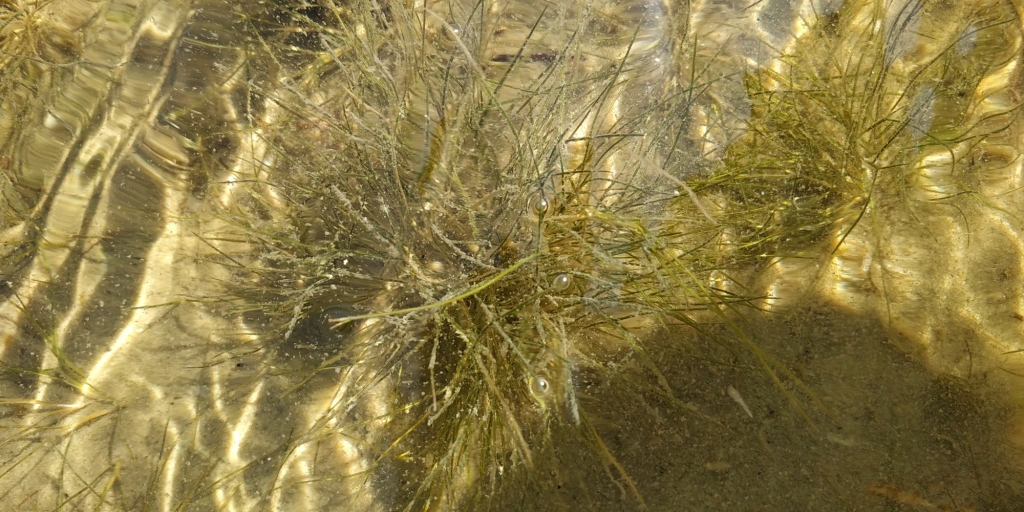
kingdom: Plantae
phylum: Tracheophyta
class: Liliopsida
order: Alismatales
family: Potamogetonaceae
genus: Stuckenia
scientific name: Stuckenia pectinata
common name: Sago pondweed
